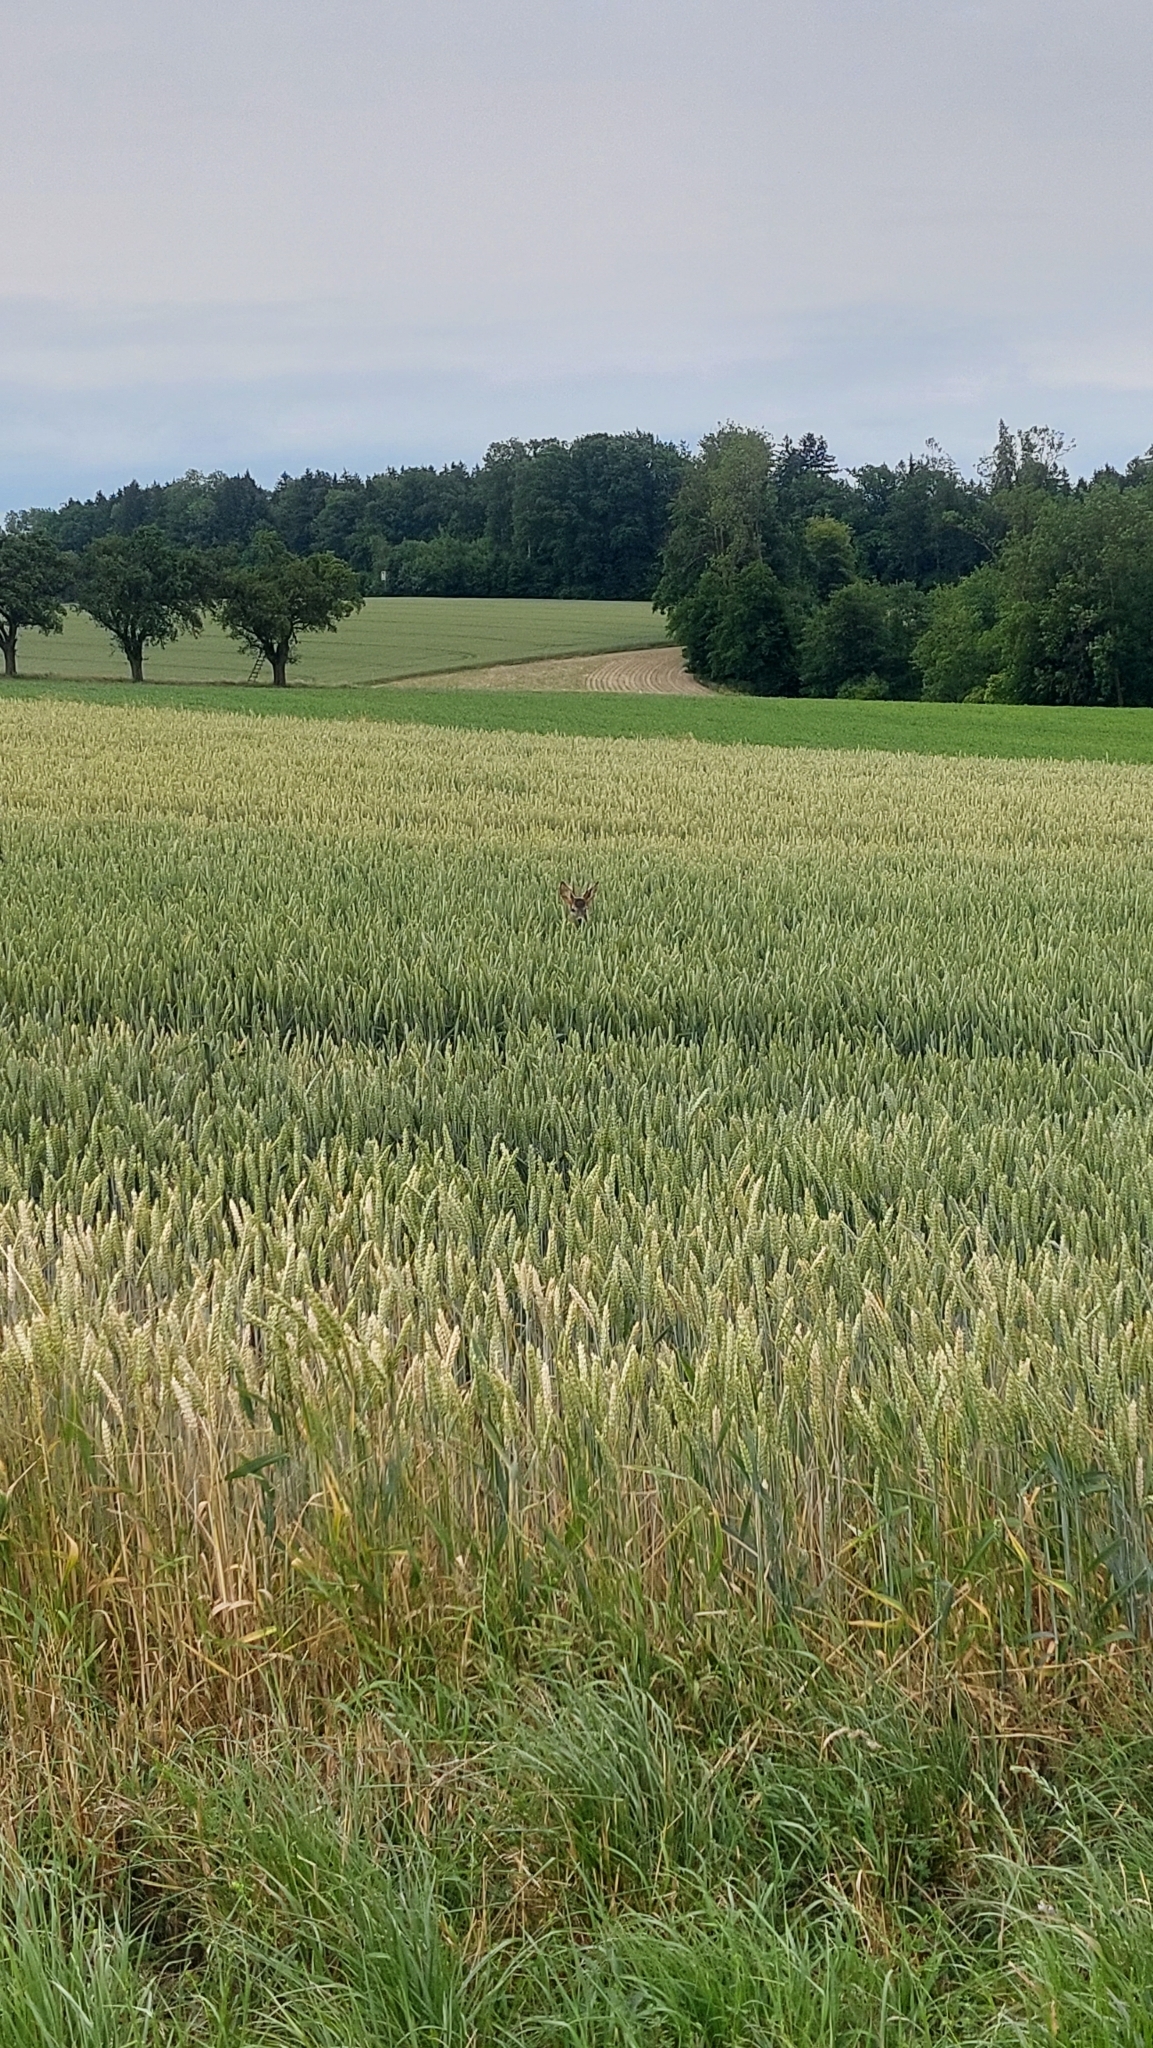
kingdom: Animalia
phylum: Chordata
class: Mammalia
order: Artiodactyla
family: Cervidae
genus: Capreolus
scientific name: Capreolus capreolus
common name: Western roe deer
